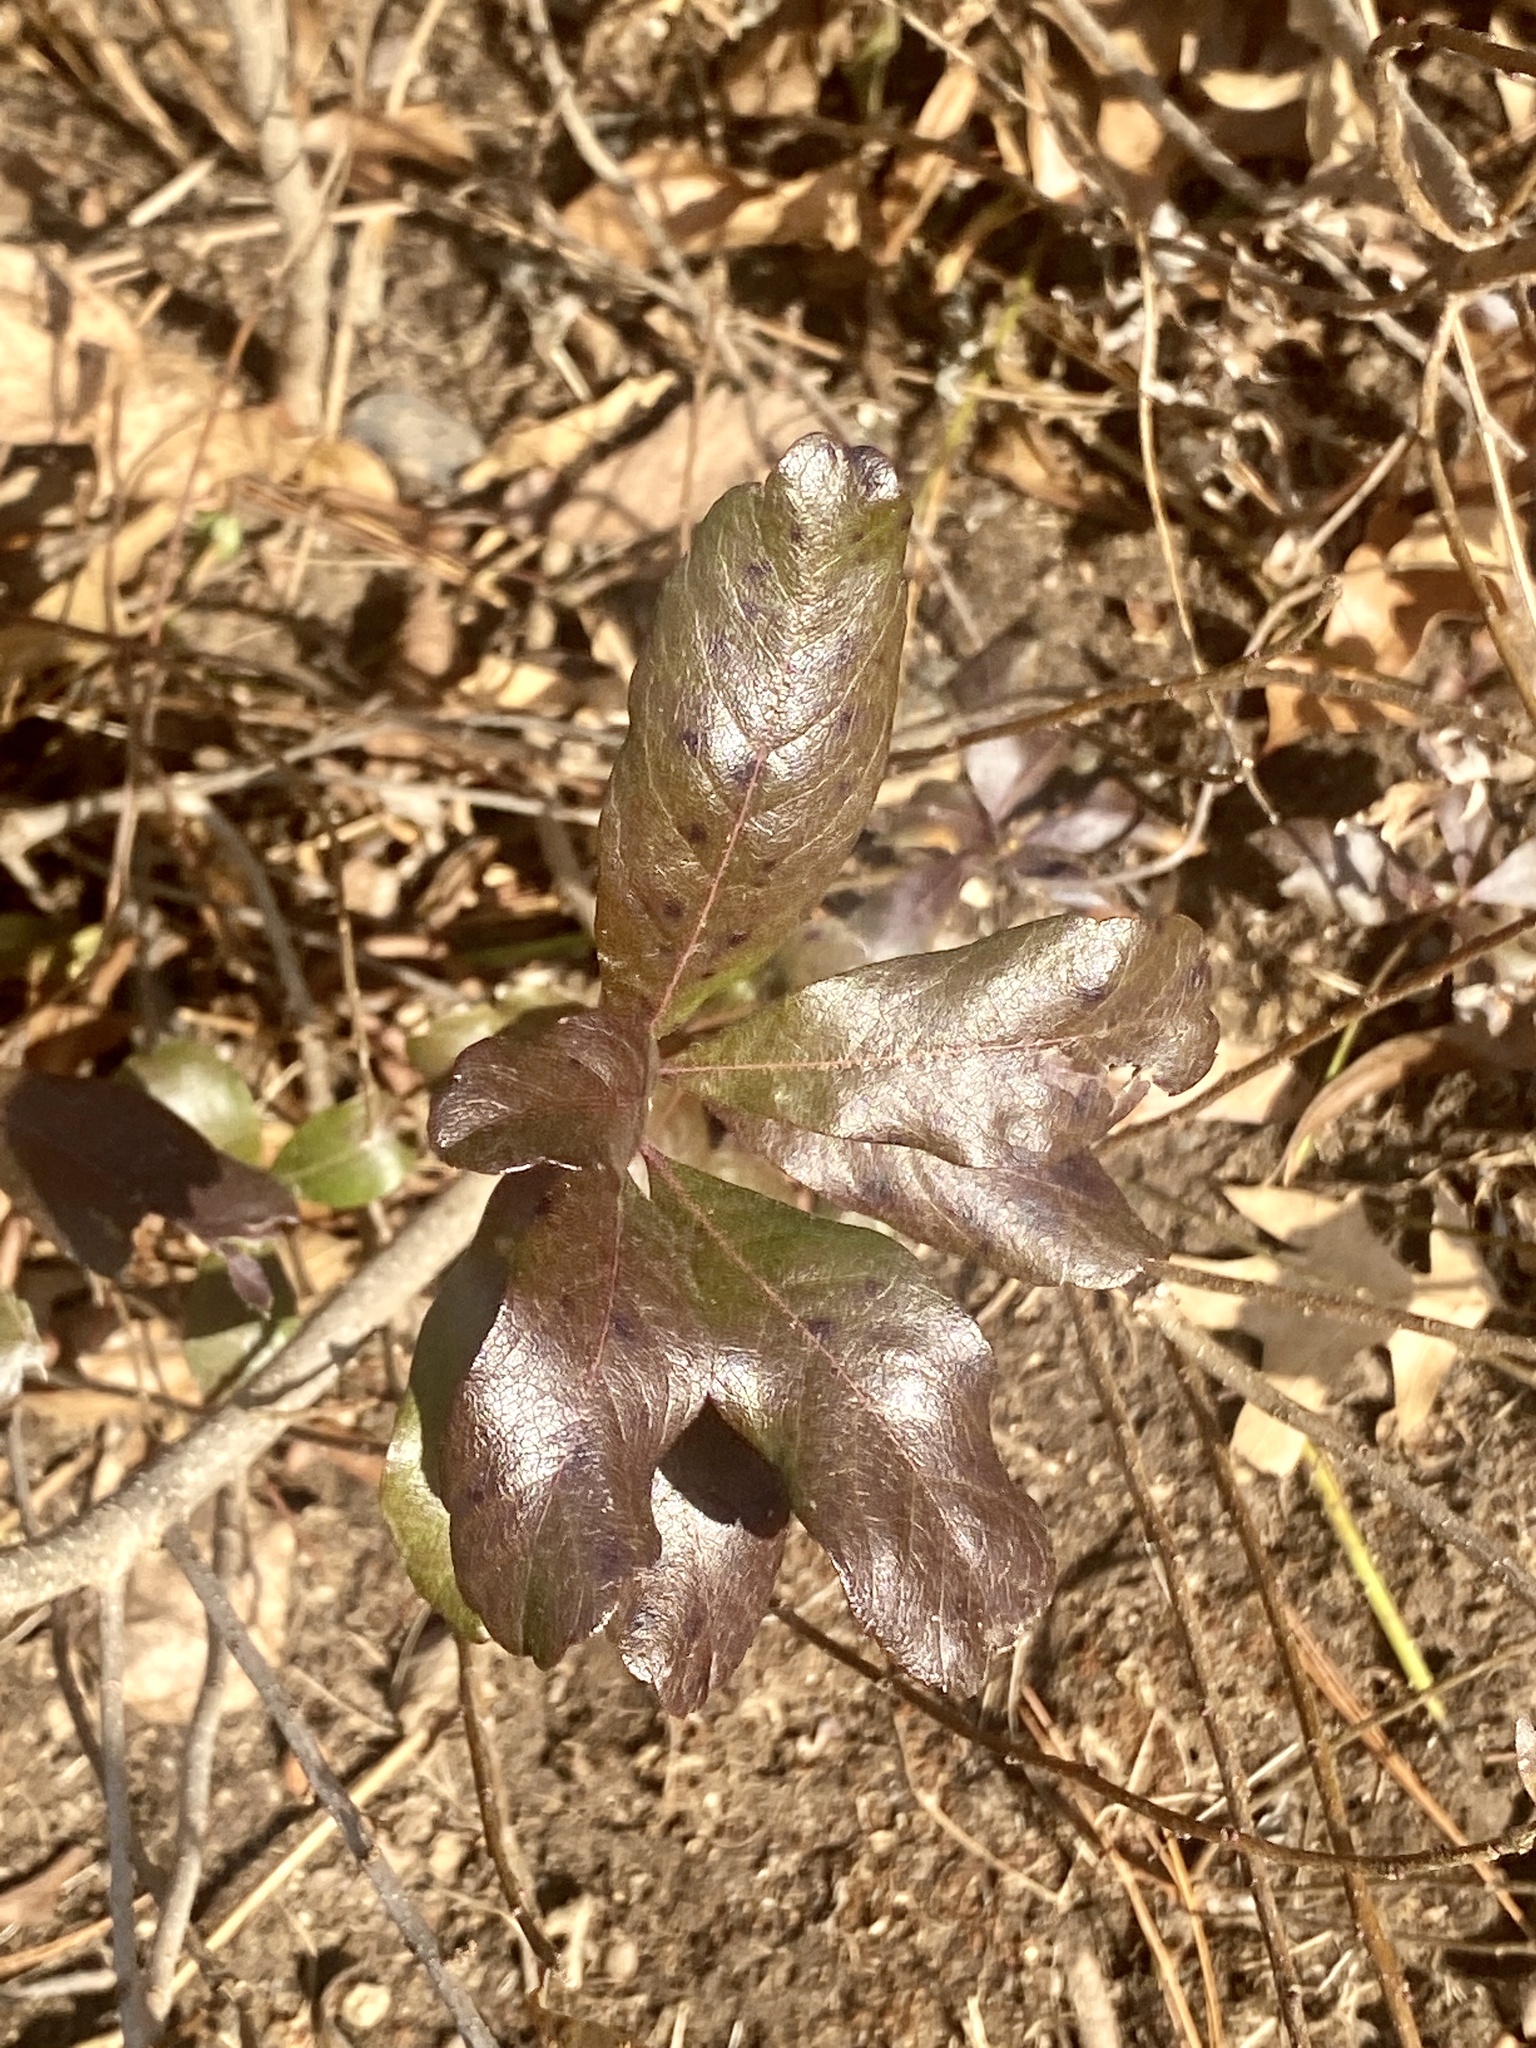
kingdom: Plantae
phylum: Tracheophyta
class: Magnoliopsida
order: Fagales
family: Myricaceae
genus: Morella
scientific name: Morella pensylvanica
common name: Northern bayberry
